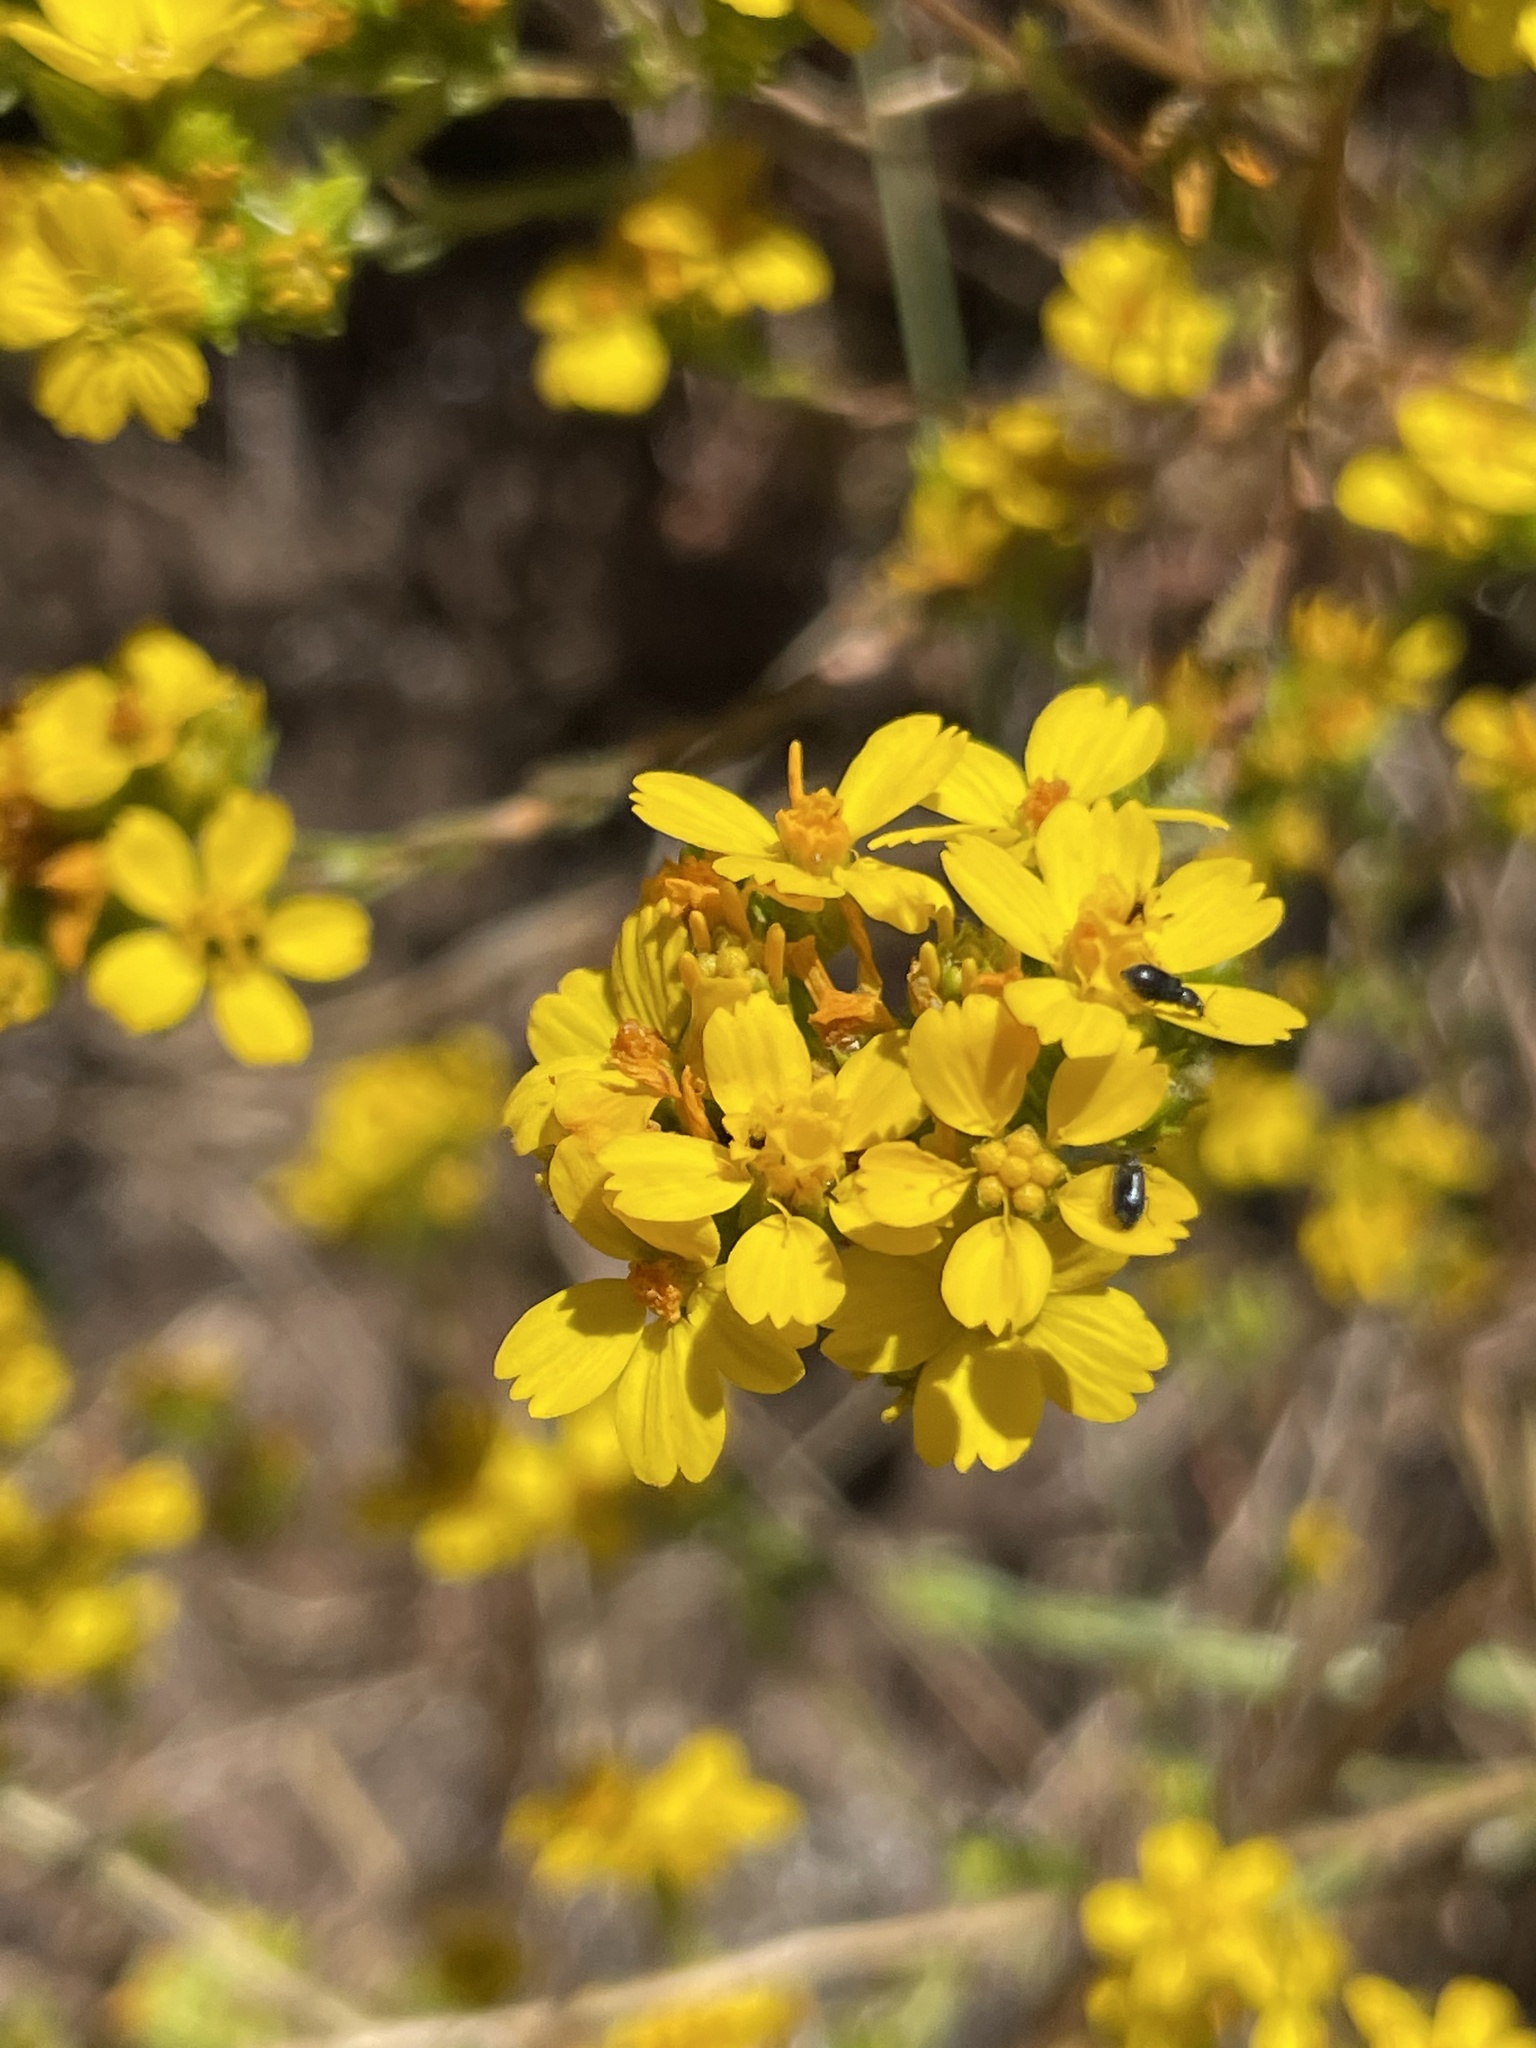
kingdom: Plantae
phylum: Tracheophyta
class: Magnoliopsida
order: Asterales
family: Asteraceae
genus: Deinandra
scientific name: Deinandra fasciculata
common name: Clustered tarweed
